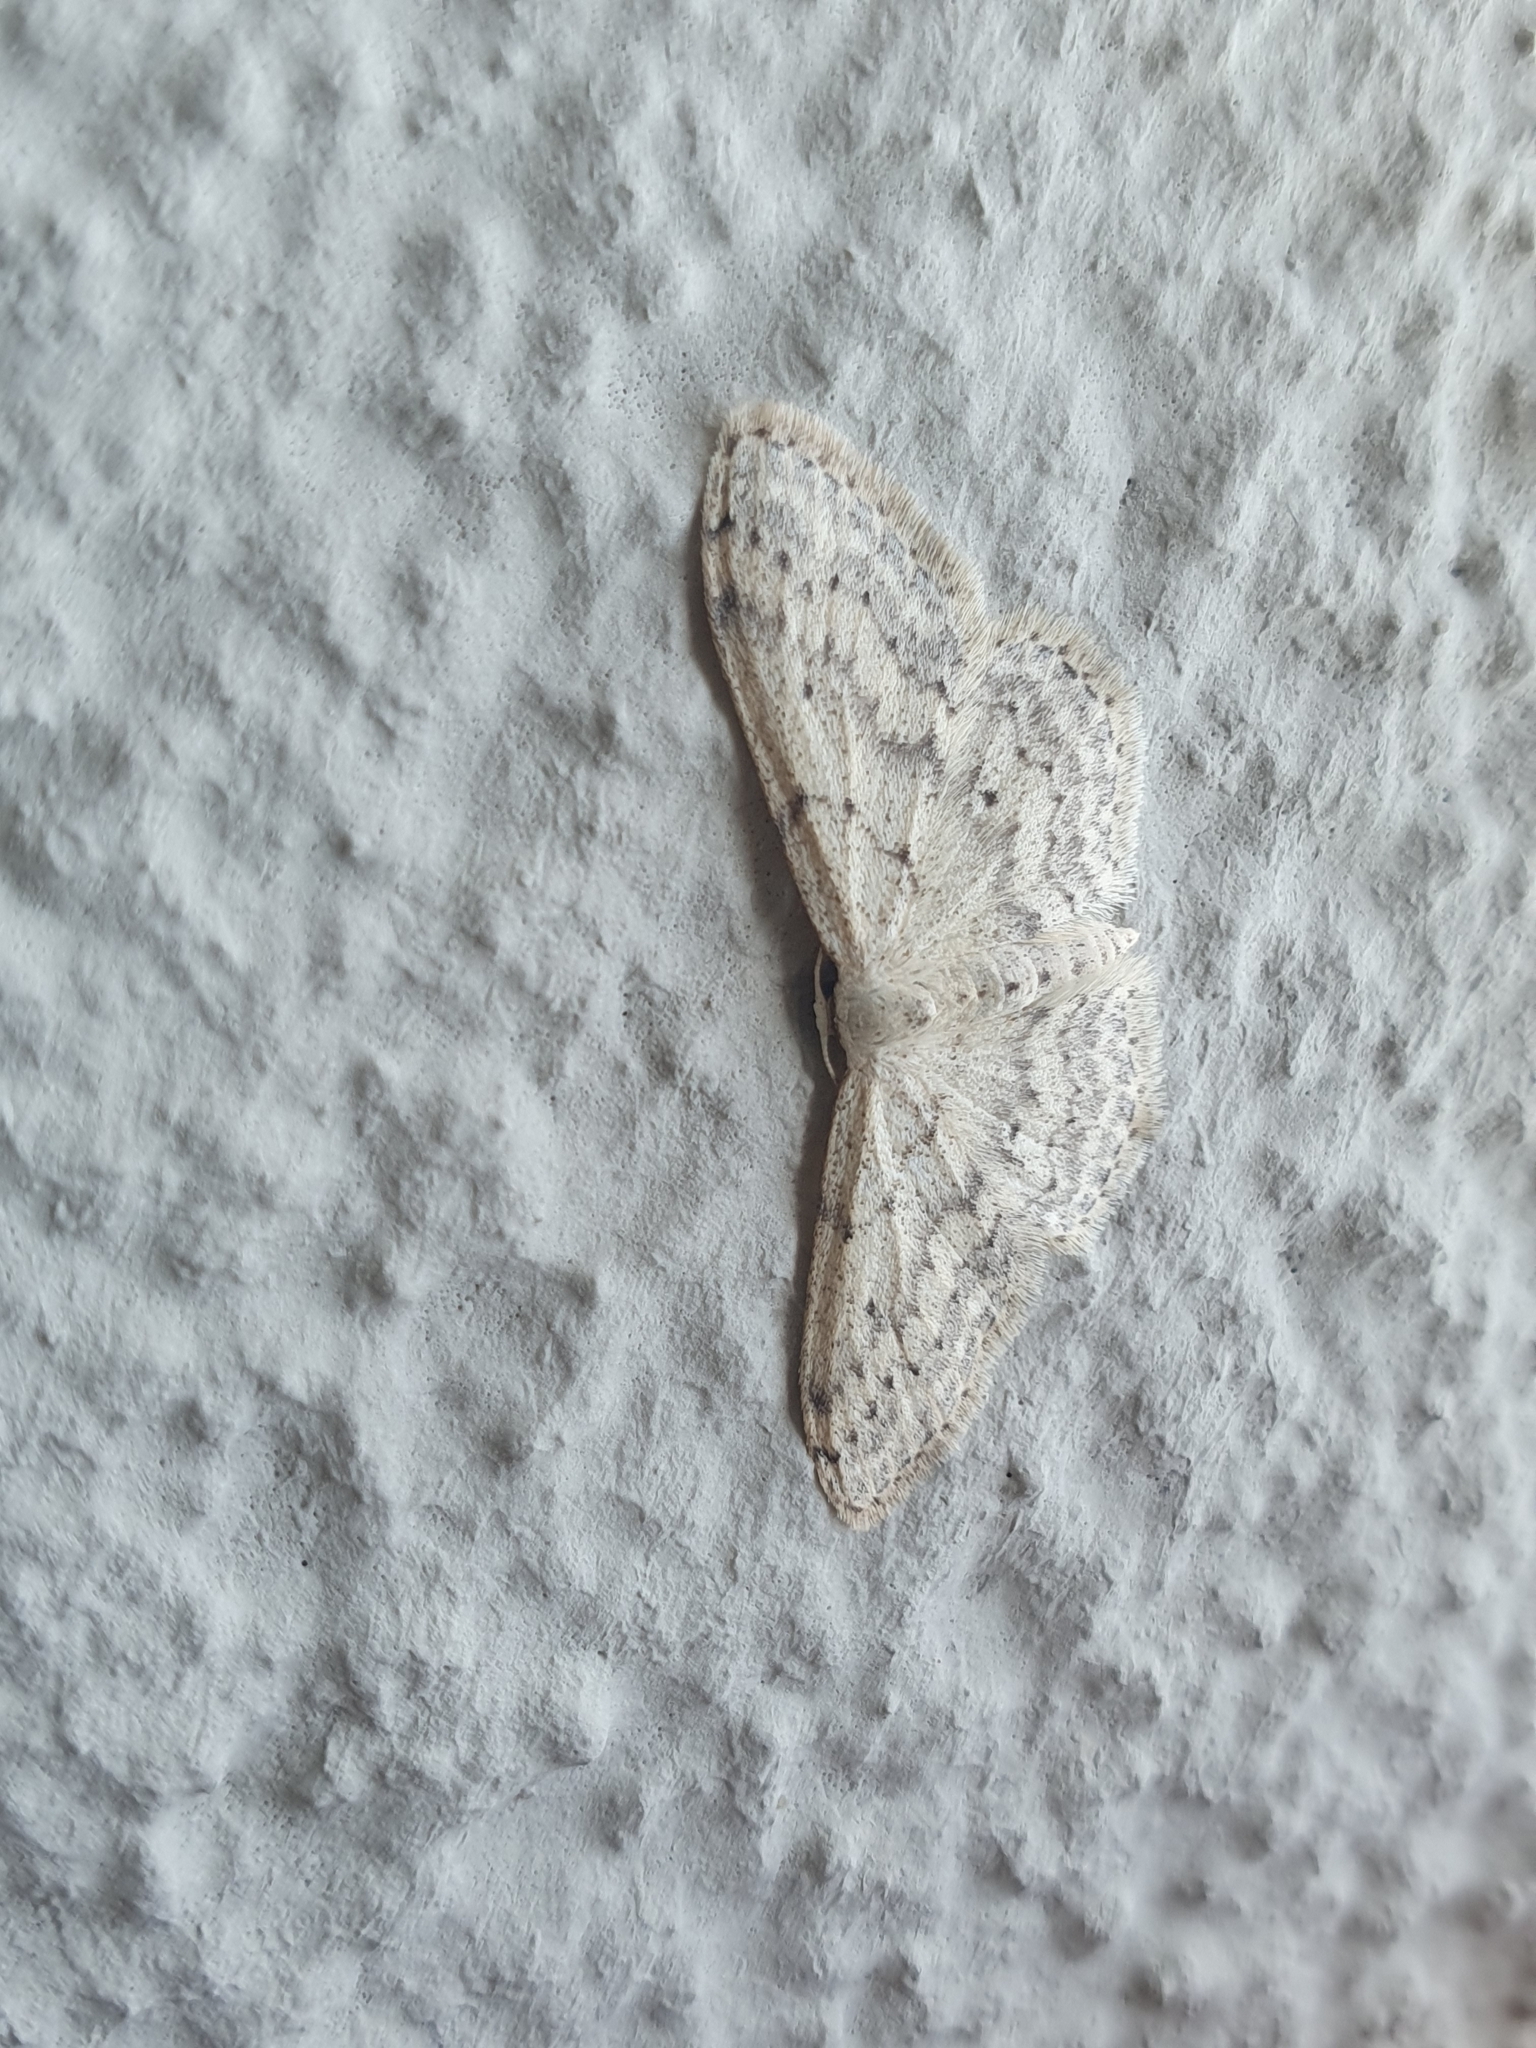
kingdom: Animalia
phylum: Arthropoda
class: Insecta
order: Lepidoptera
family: Geometridae
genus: Idaea
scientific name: Idaea seriata
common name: Small dusty wave
